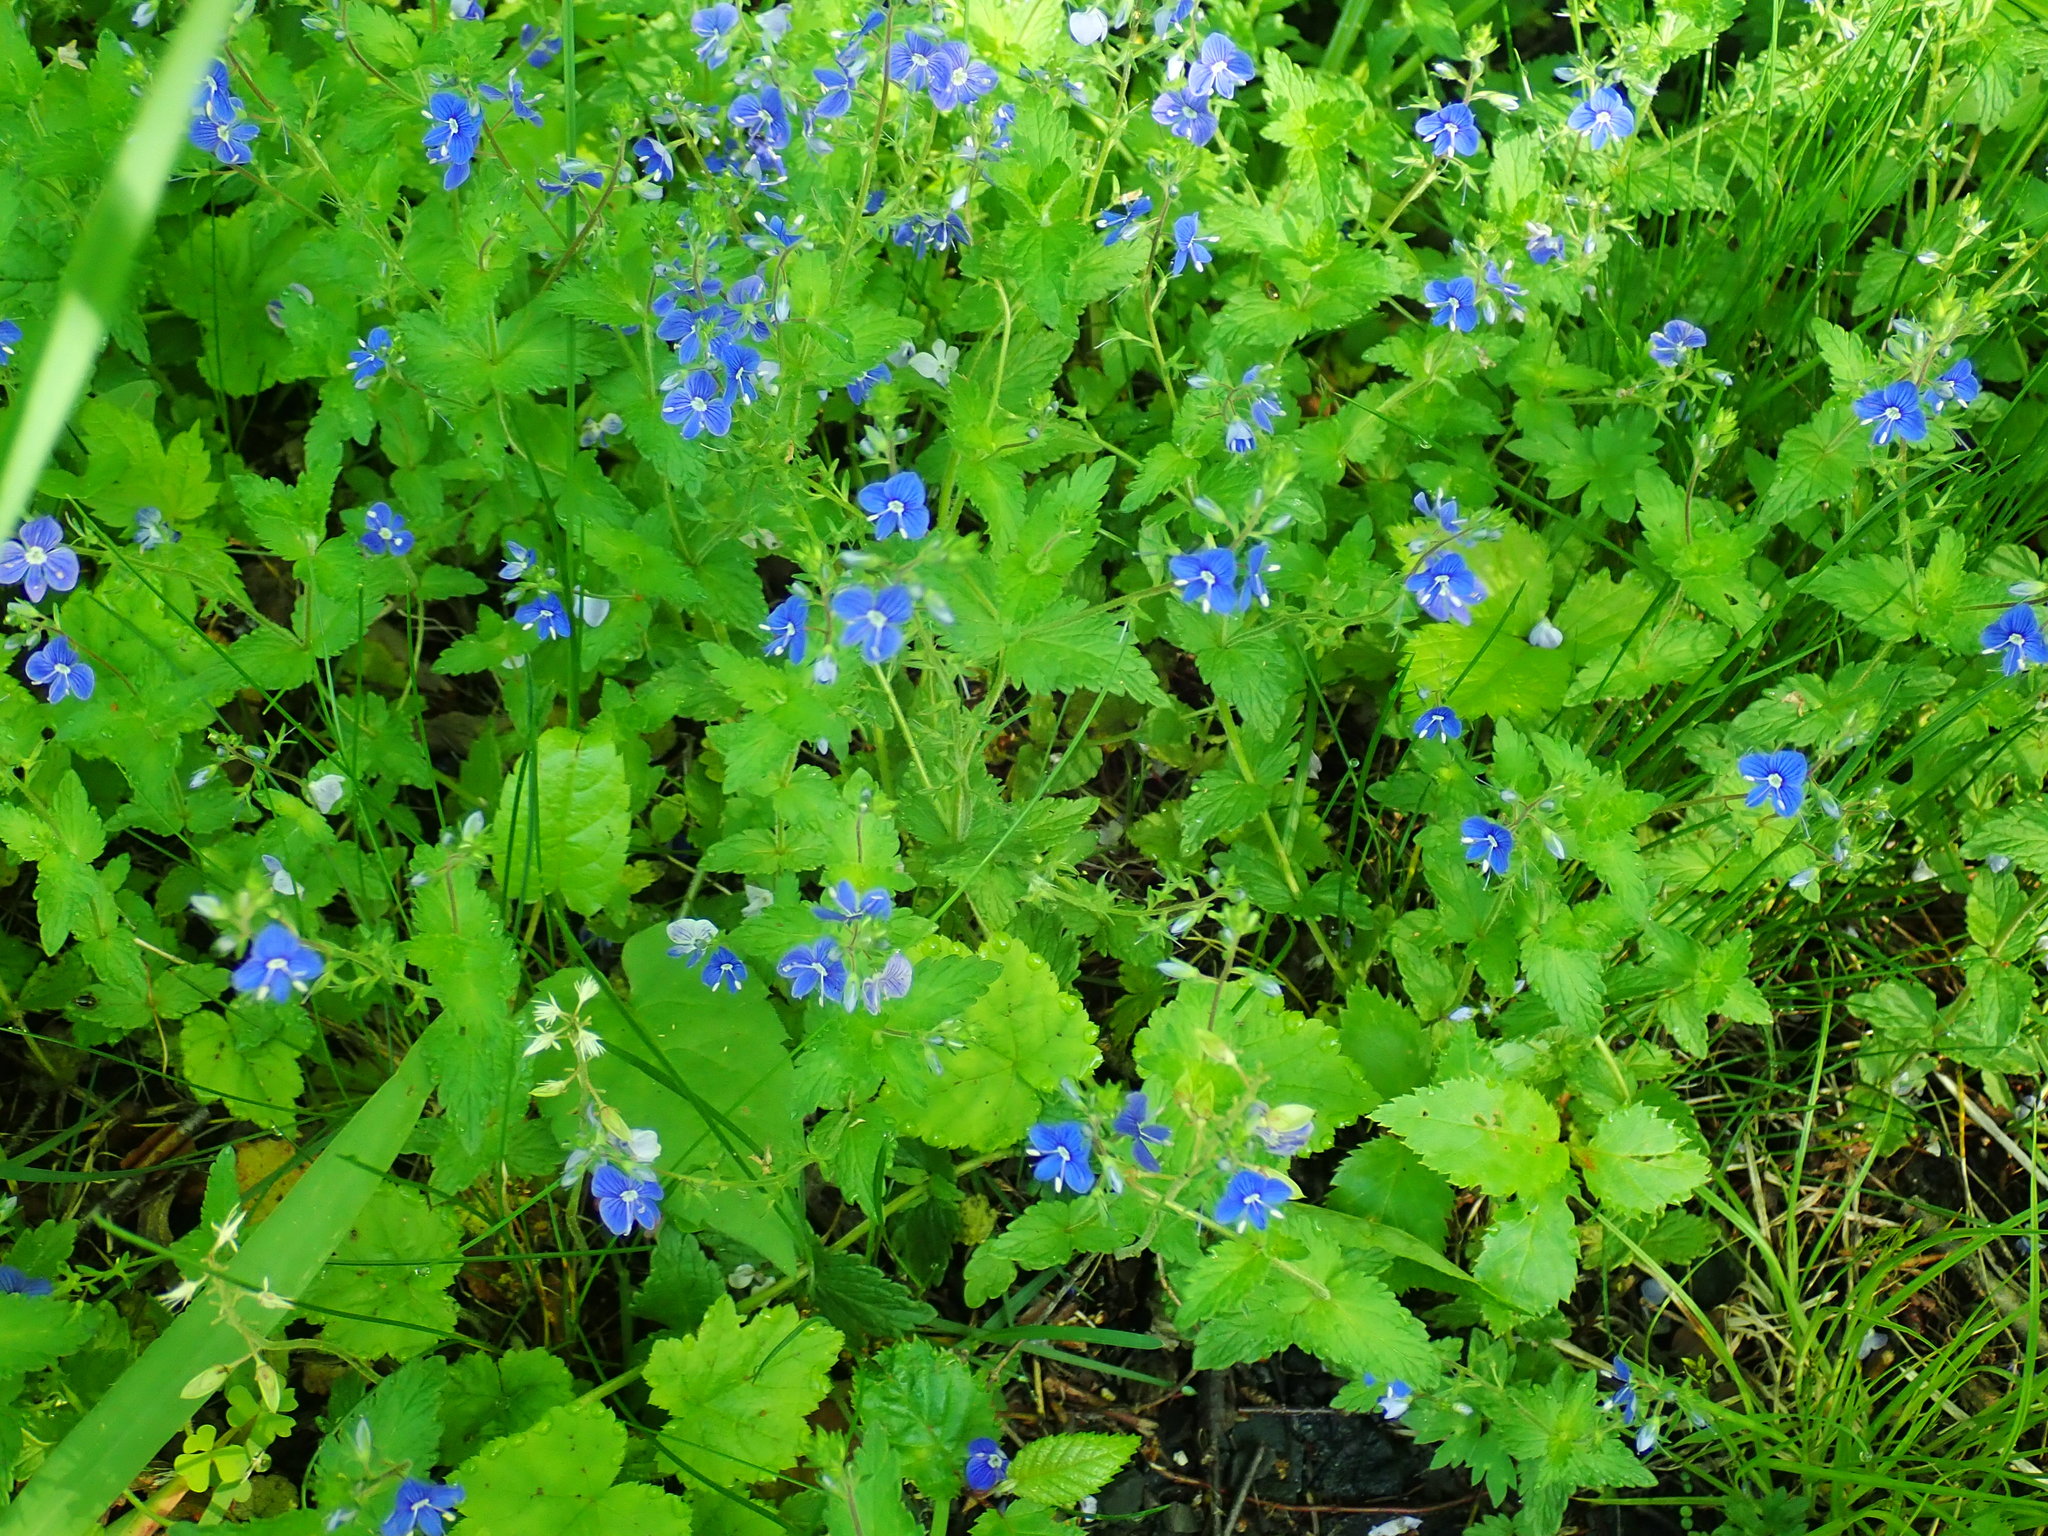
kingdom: Plantae
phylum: Tracheophyta
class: Magnoliopsida
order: Lamiales
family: Plantaginaceae
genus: Veronica
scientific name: Veronica chamaedrys
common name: Germander speedwell
